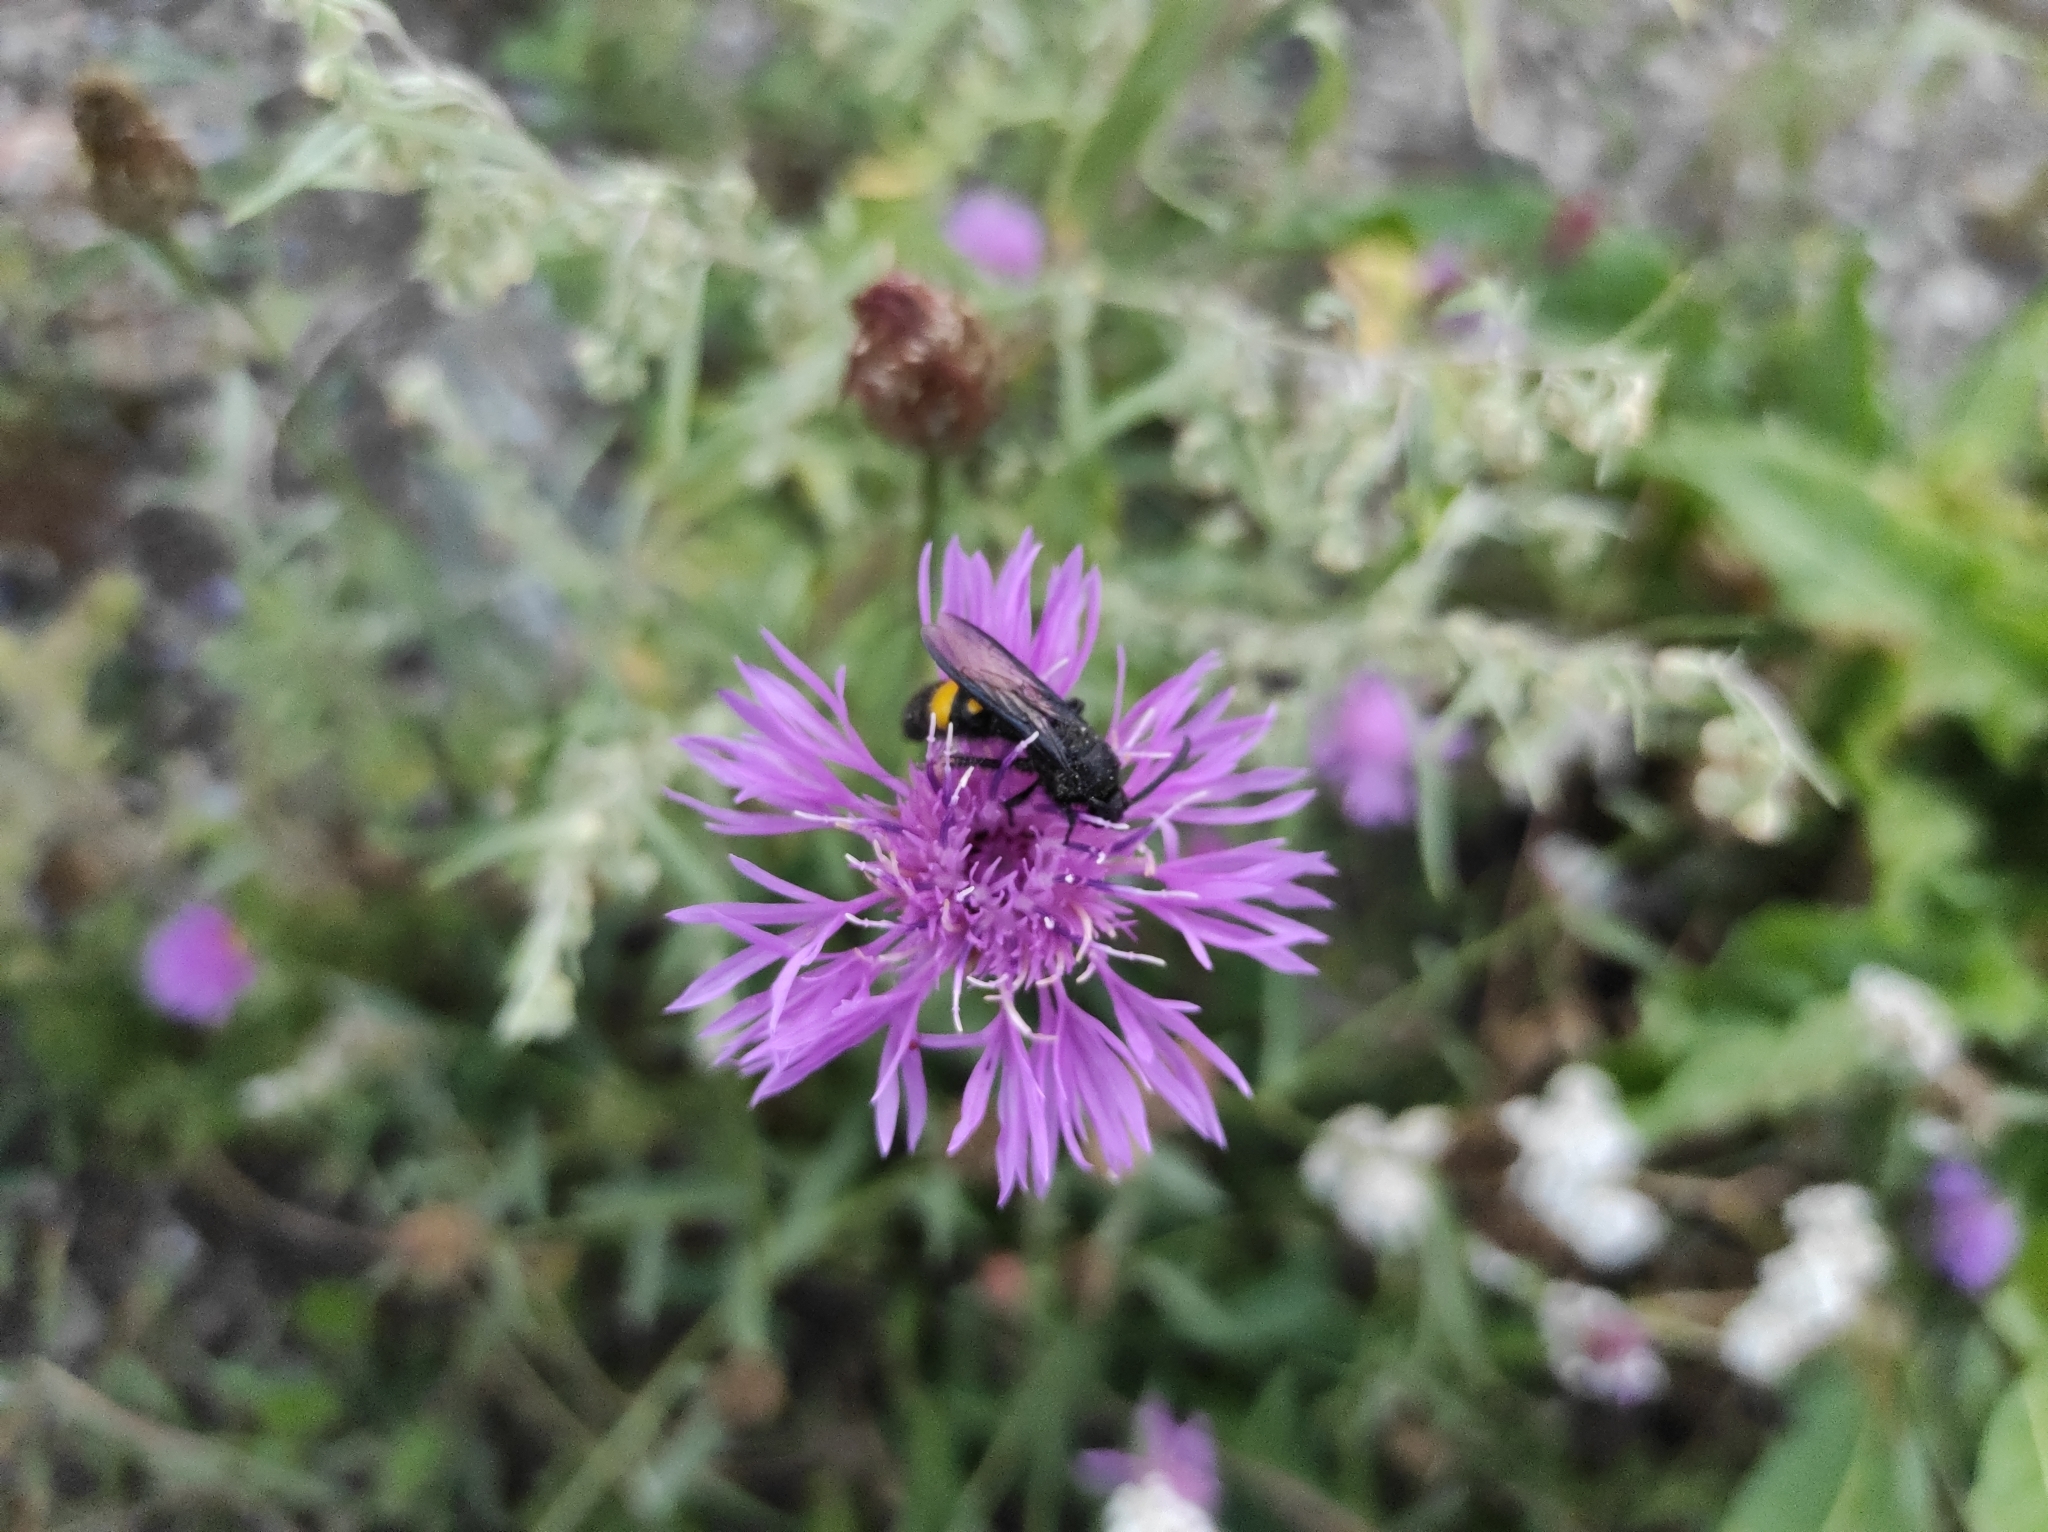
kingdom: Plantae
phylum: Tracheophyta
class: Magnoliopsida
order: Asterales
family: Asteraceae
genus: Centaurea
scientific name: Centaurea jacea
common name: Brown knapweed
